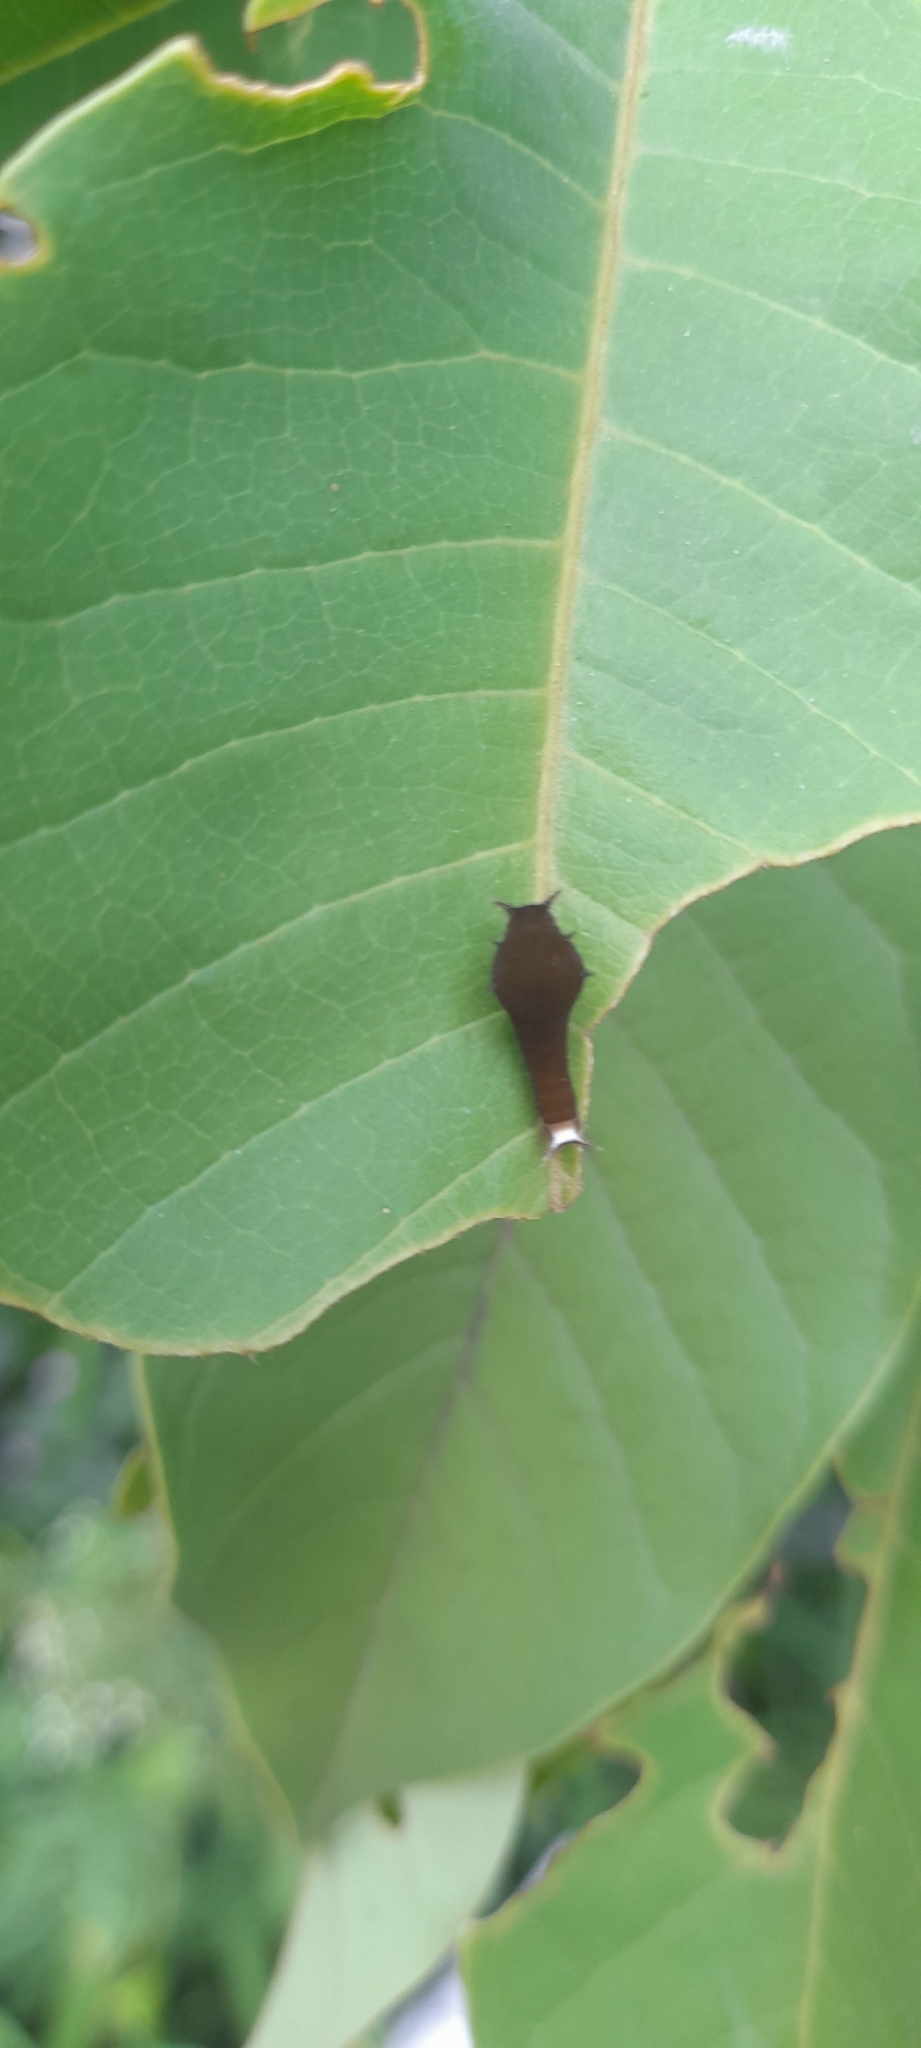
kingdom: Animalia
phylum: Arthropoda
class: Insecta
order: Lepidoptera
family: Papilionidae
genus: Graphium
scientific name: Graphium doson
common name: Common jay
